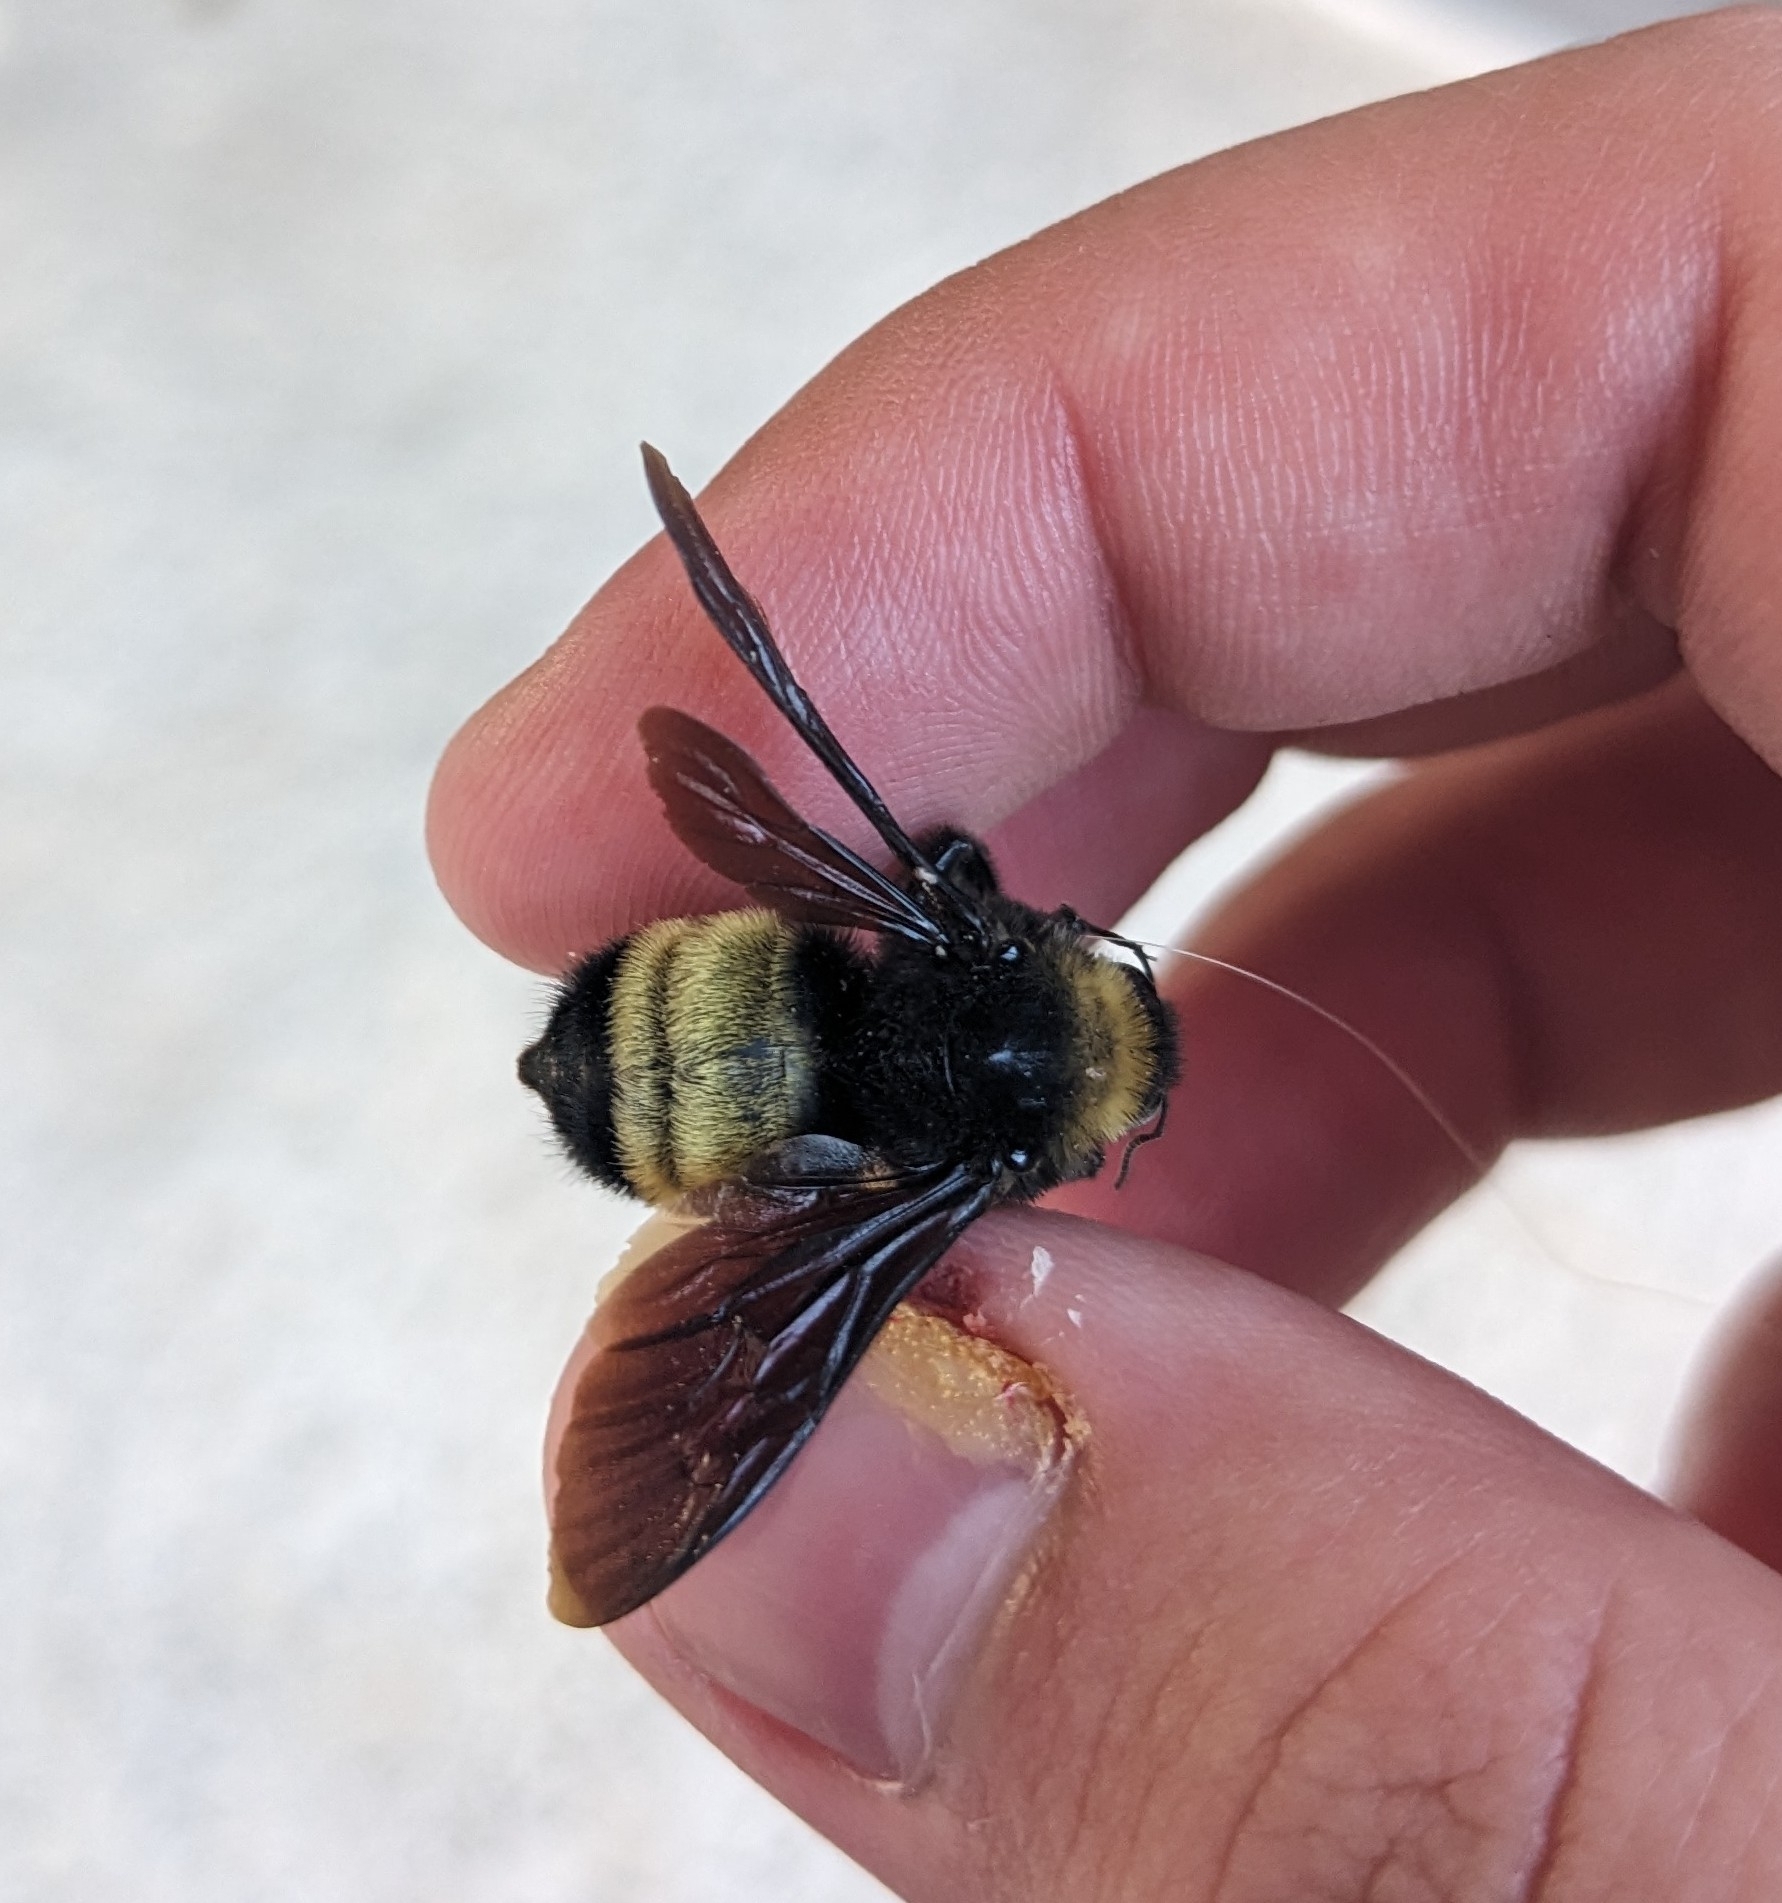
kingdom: Animalia
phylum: Arthropoda
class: Insecta
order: Hymenoptera
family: Apidae
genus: Bombus
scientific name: Bombus pensylvanicus
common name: Bumble bee
